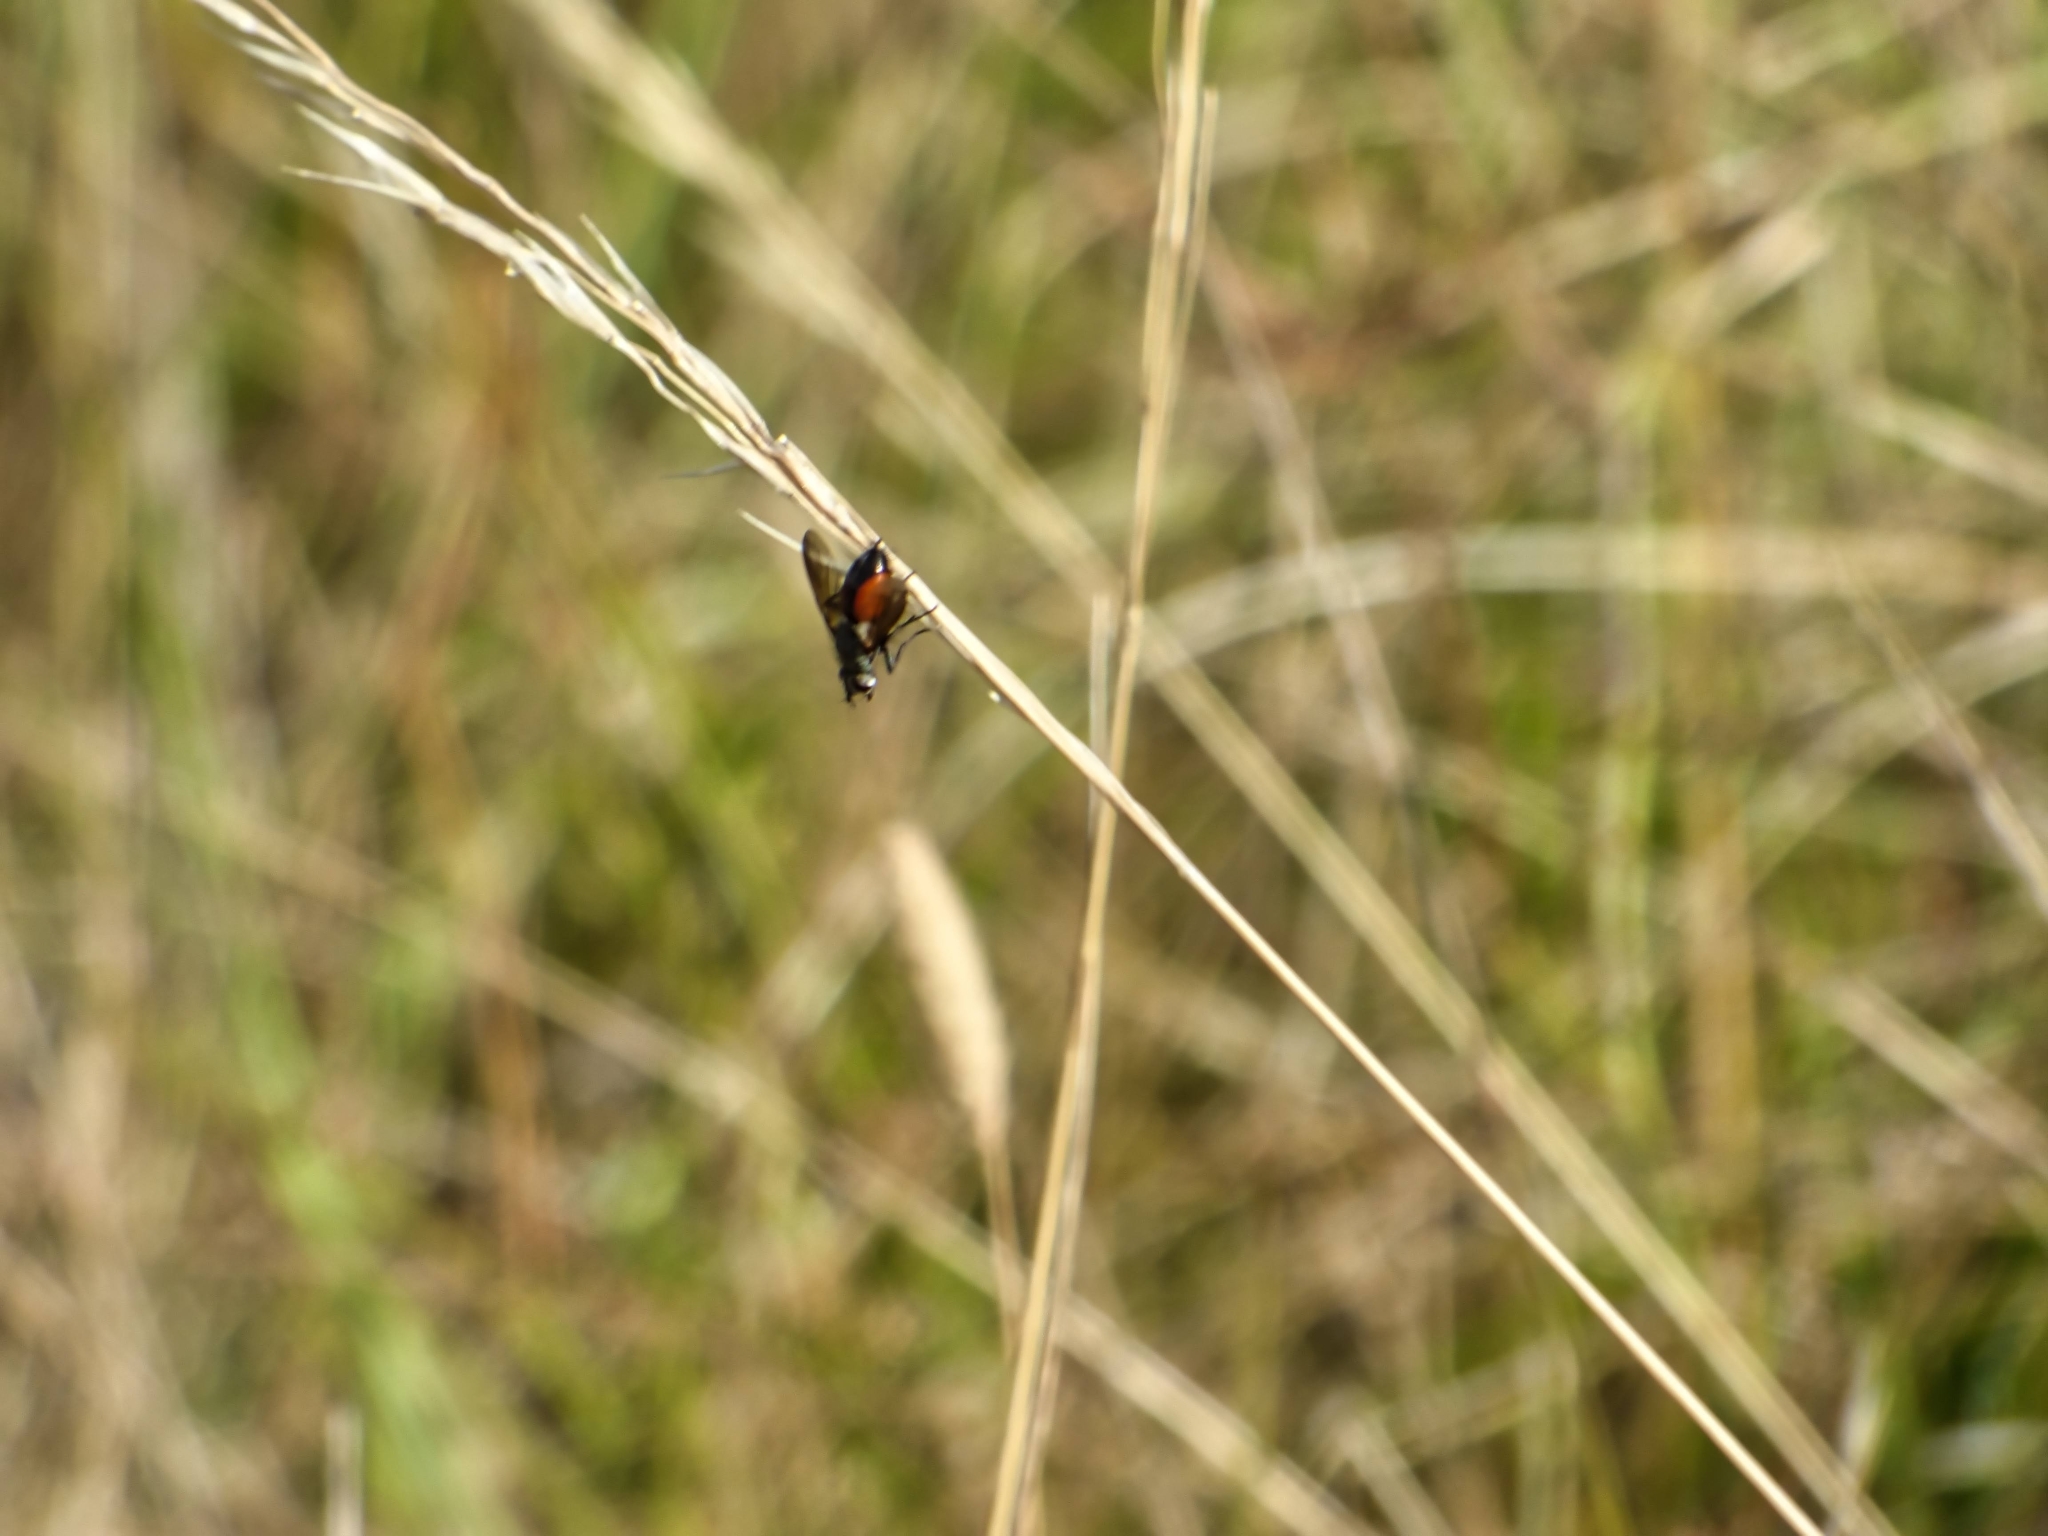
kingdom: Animalia
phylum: Arthropoda
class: Insecta
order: Diptera
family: Tachinidae
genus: Eriothrix
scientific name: Eriothrix rufomaculatus
